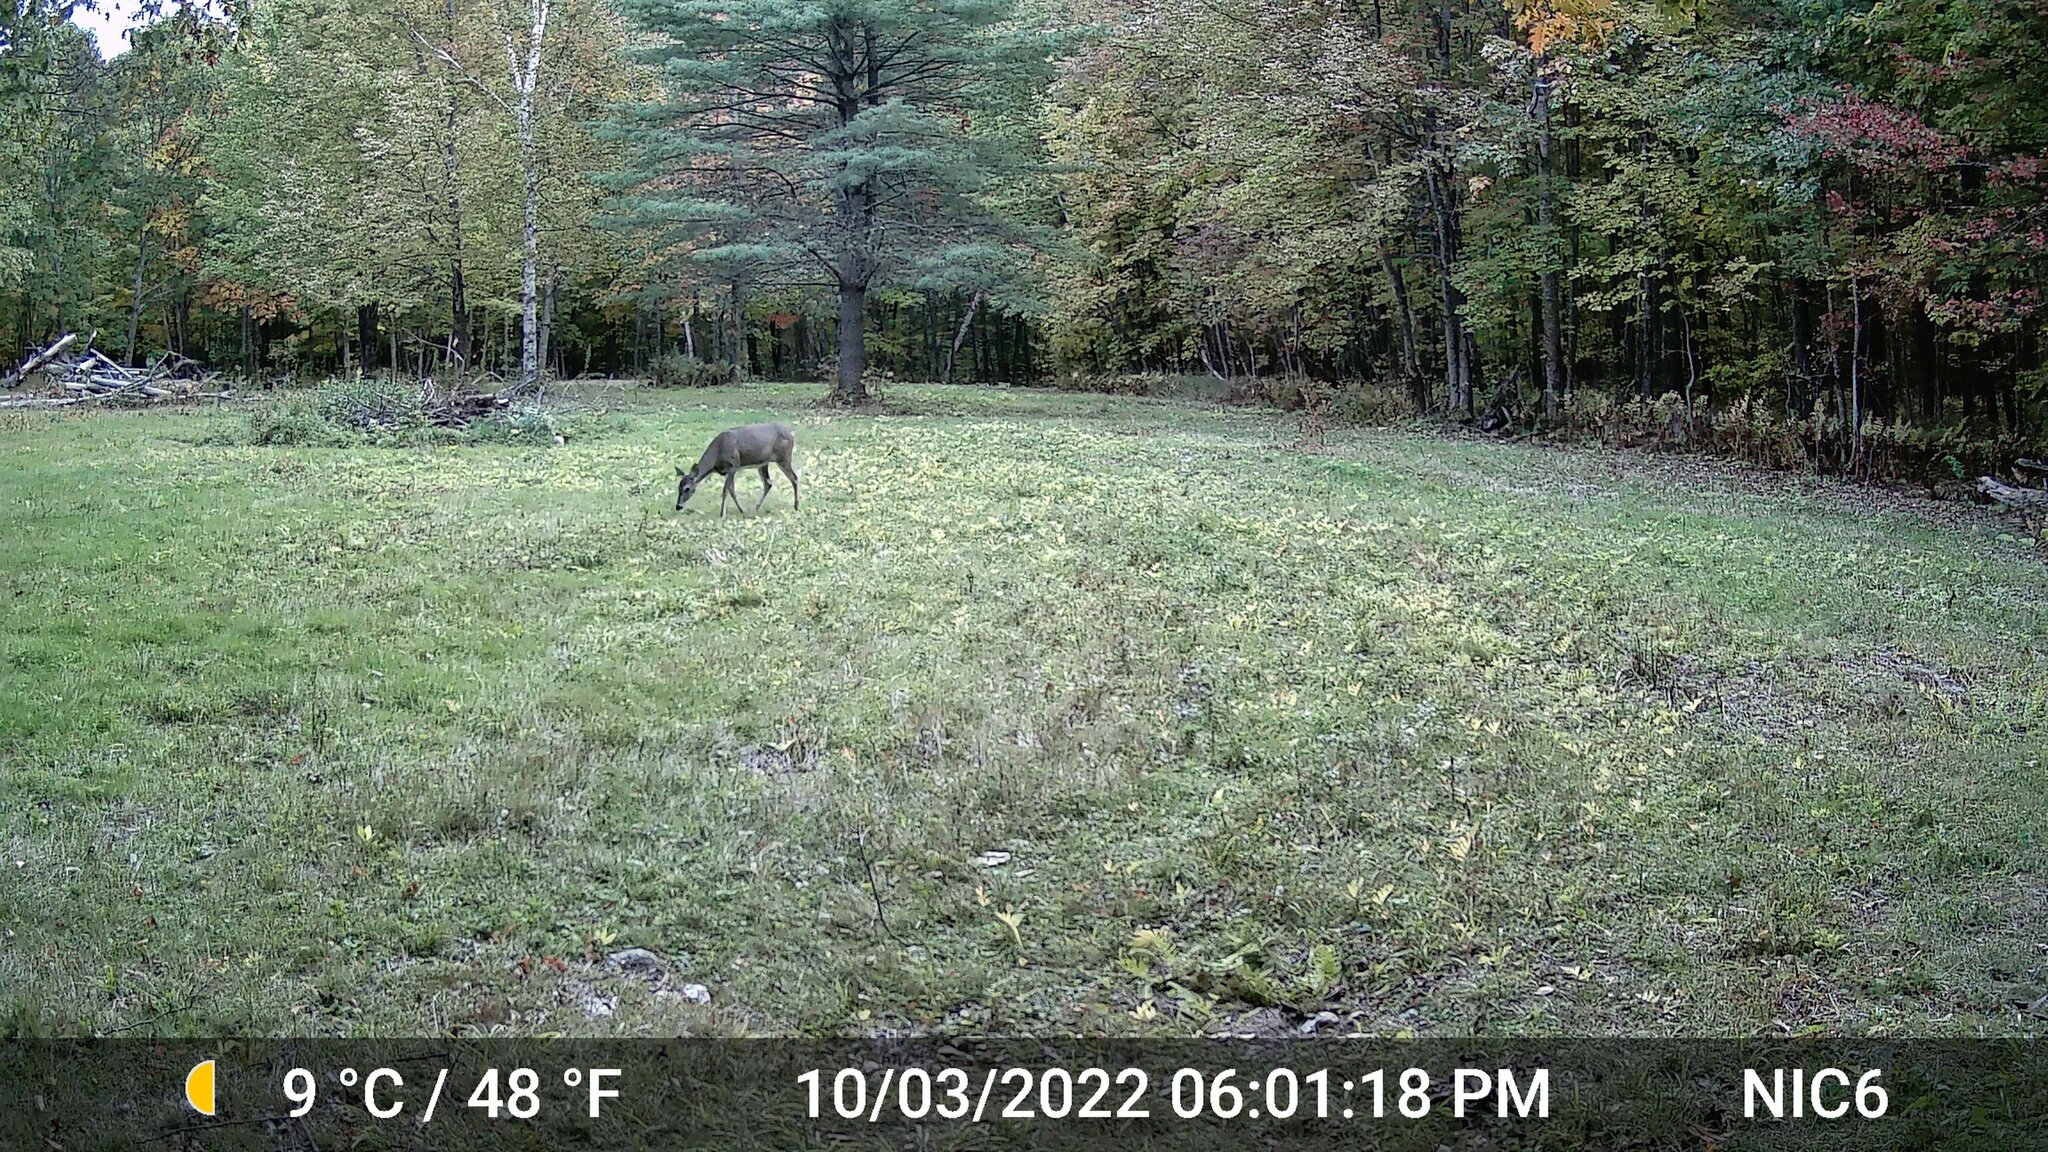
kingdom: Animalia
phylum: Chordata
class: Mammalia
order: Artiodactyla
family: Cervidae
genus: Odocoileus
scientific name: Odocoileus virginianus
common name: White-tailed deer
